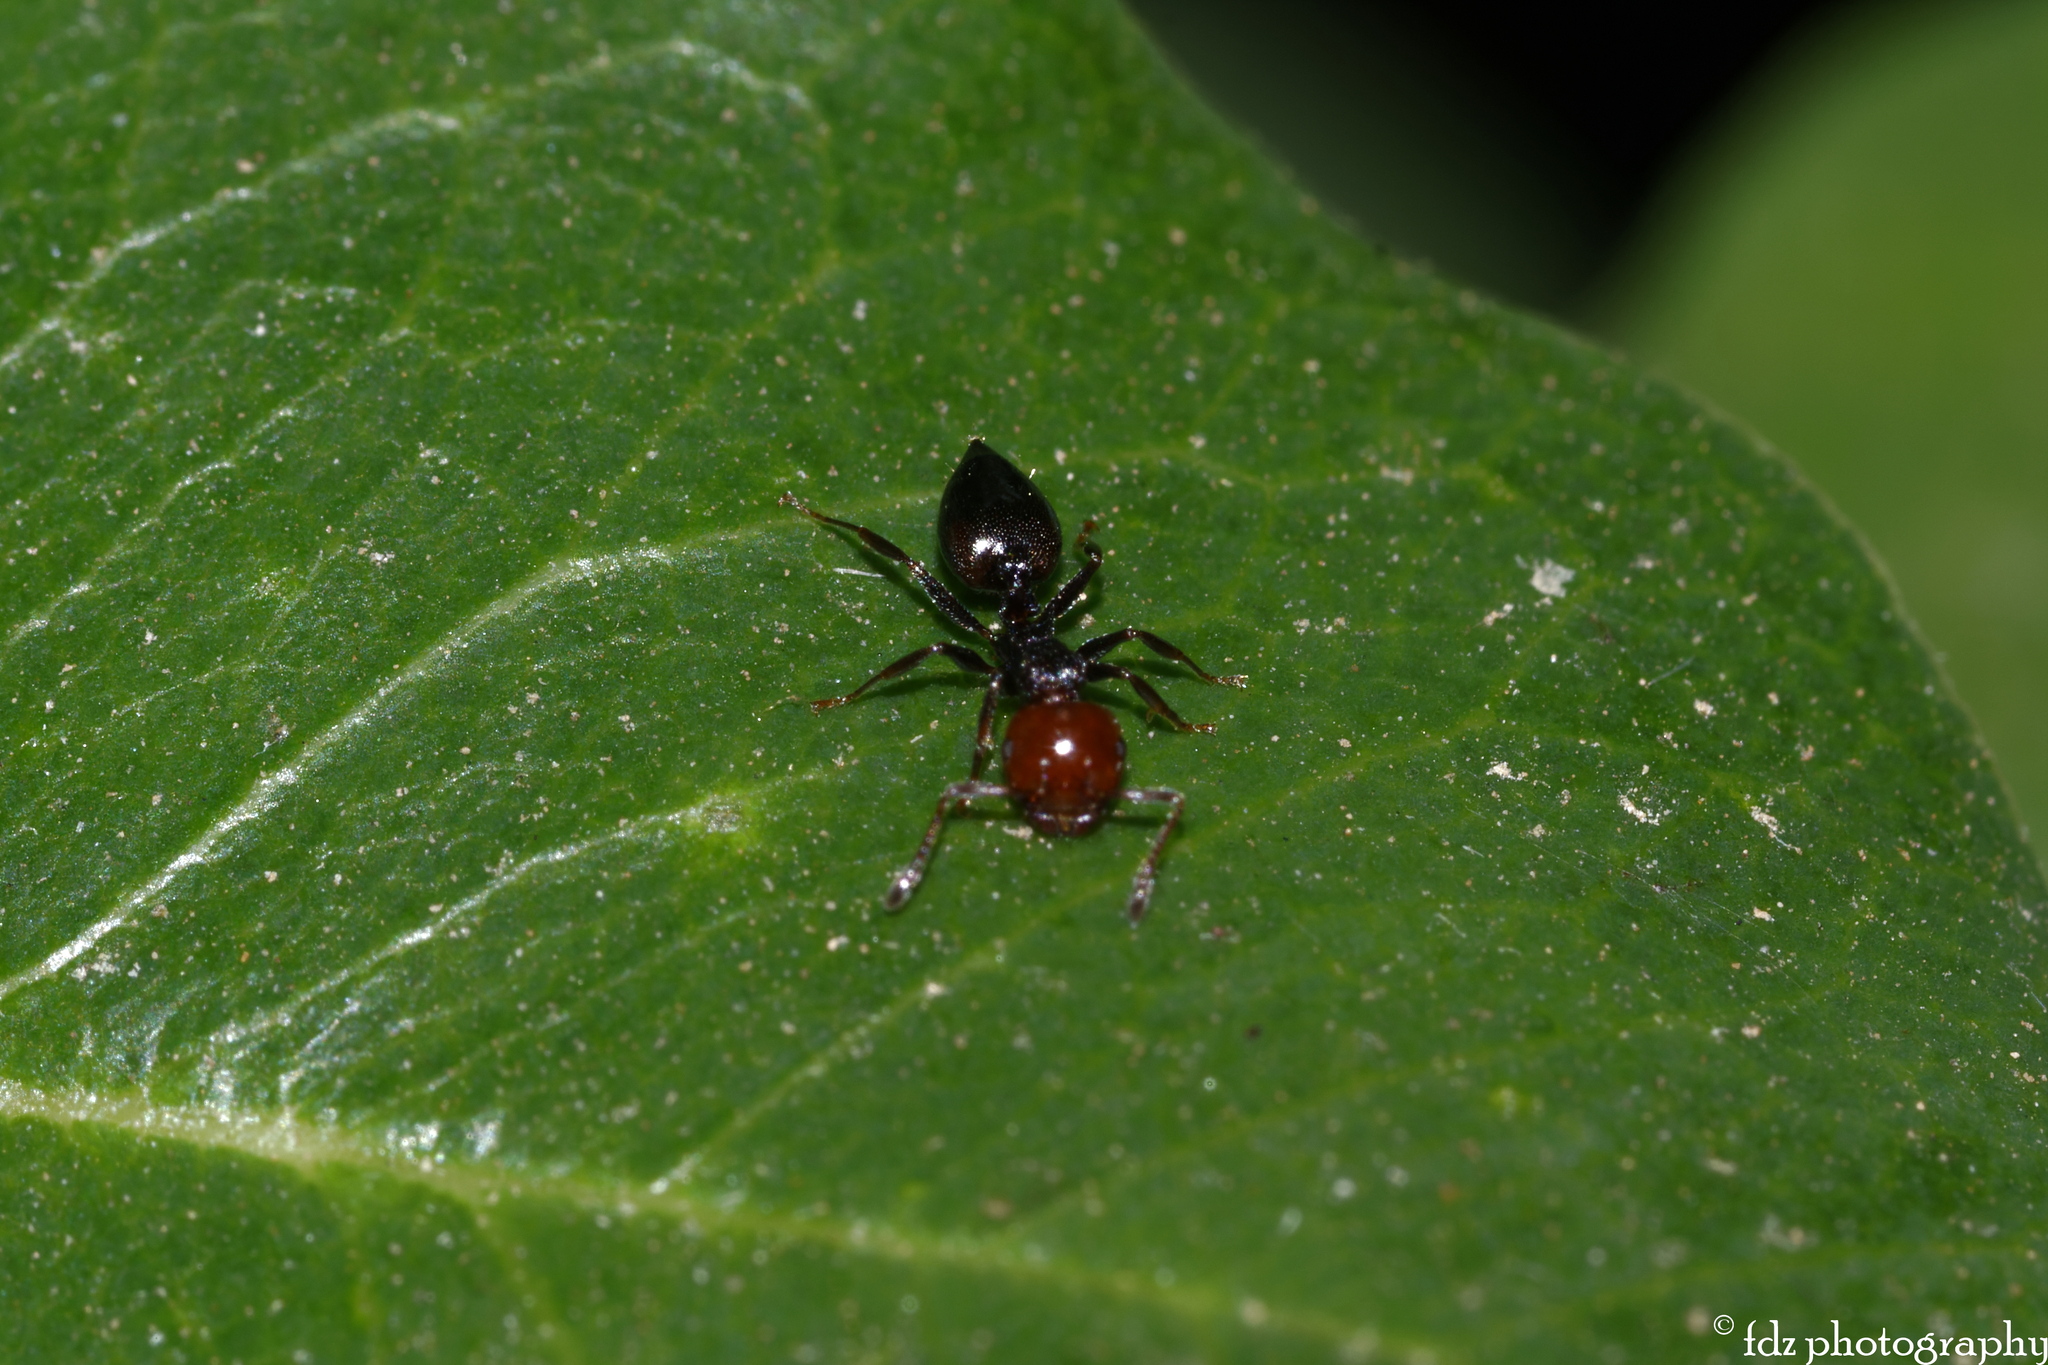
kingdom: Animalia
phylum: Arthropoda
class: Insecta
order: Hymenoptera
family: Formicidae
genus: Crematogaster
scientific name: Crematogaster scutellaris
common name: Fourmi du liège
